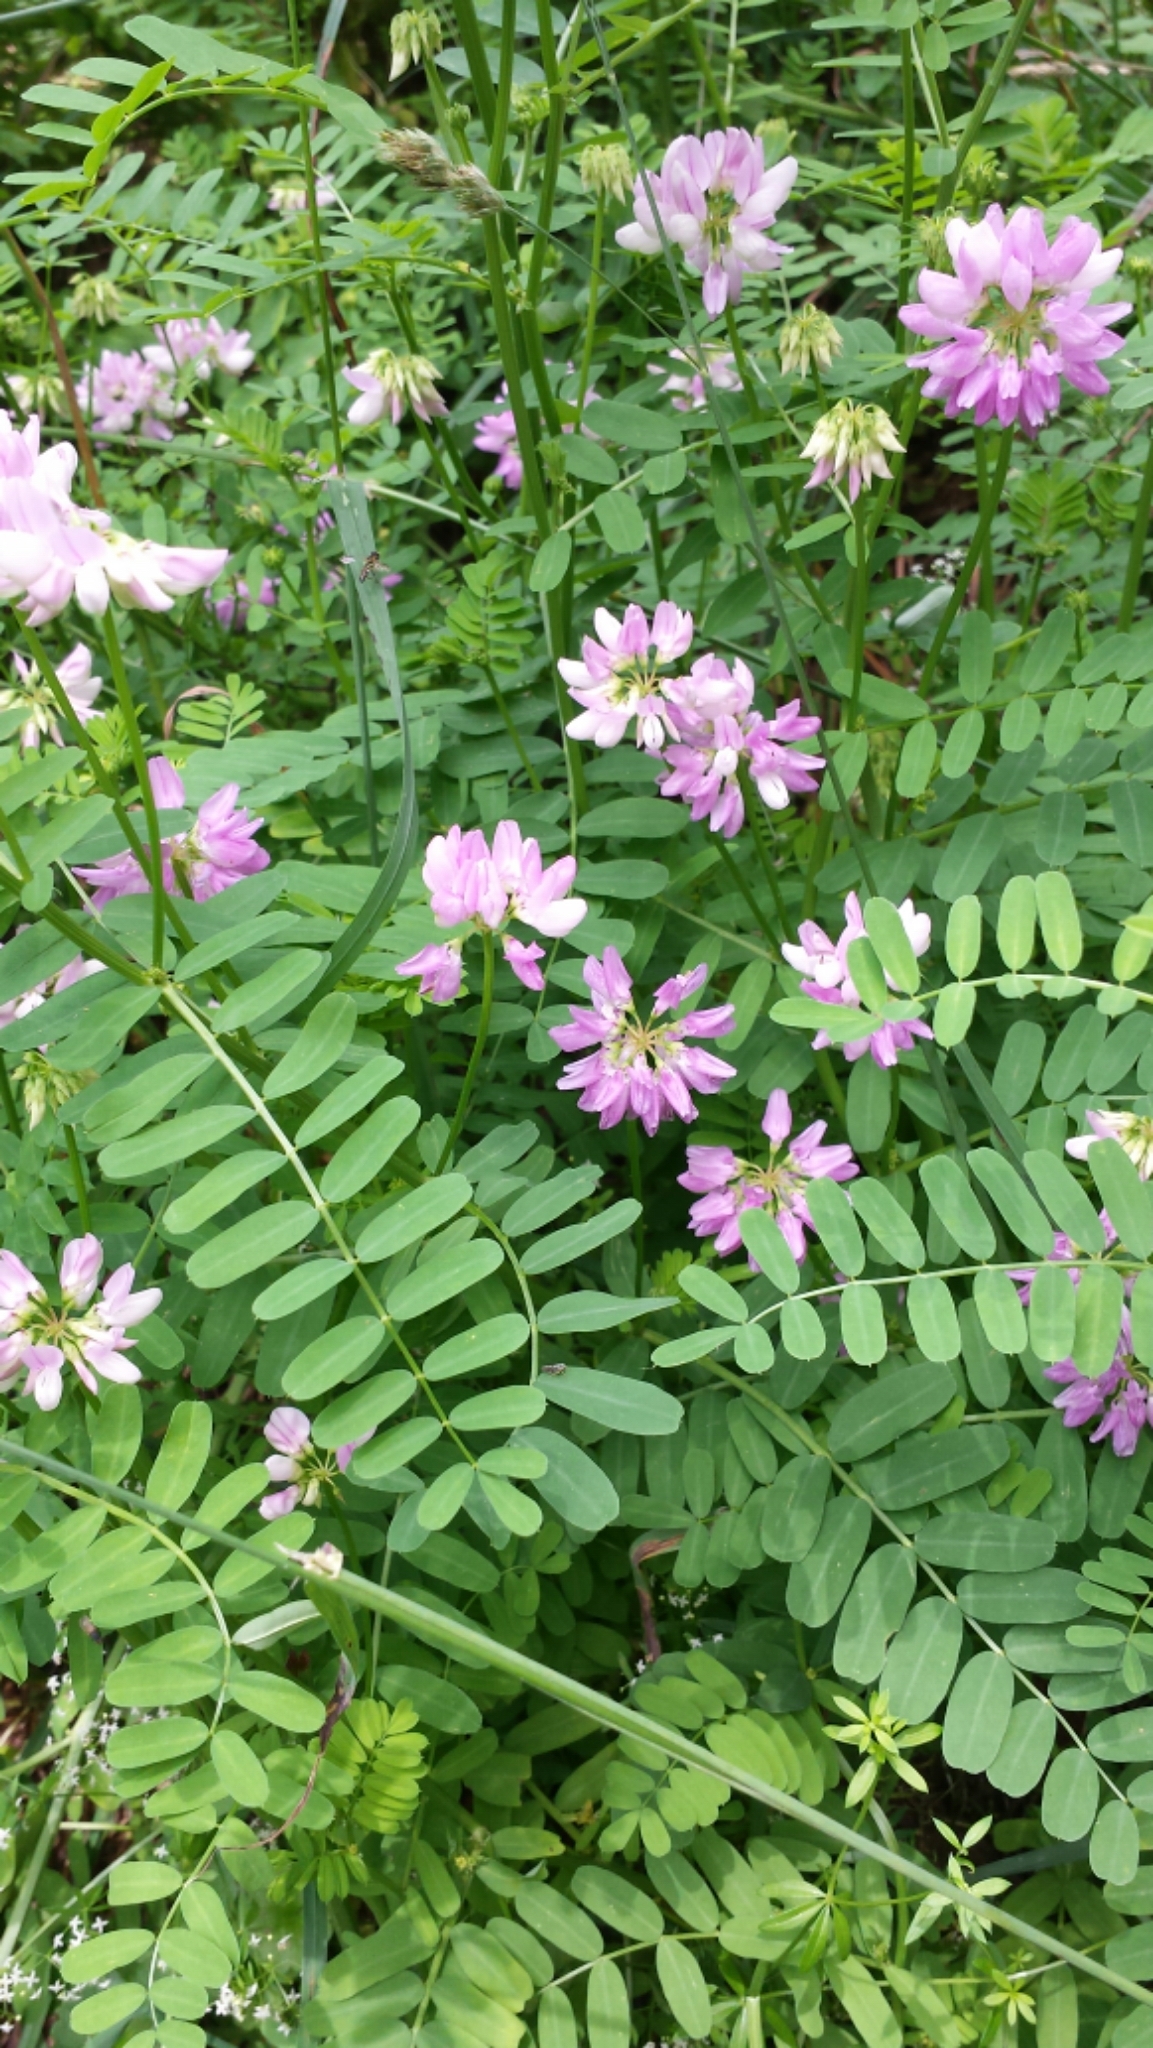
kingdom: Plantae
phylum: Tracheophyta
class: Magnoliopsida
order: Fabales
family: Fabaceae
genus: Coronilla
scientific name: Coronilla varia
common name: Crownvetch
